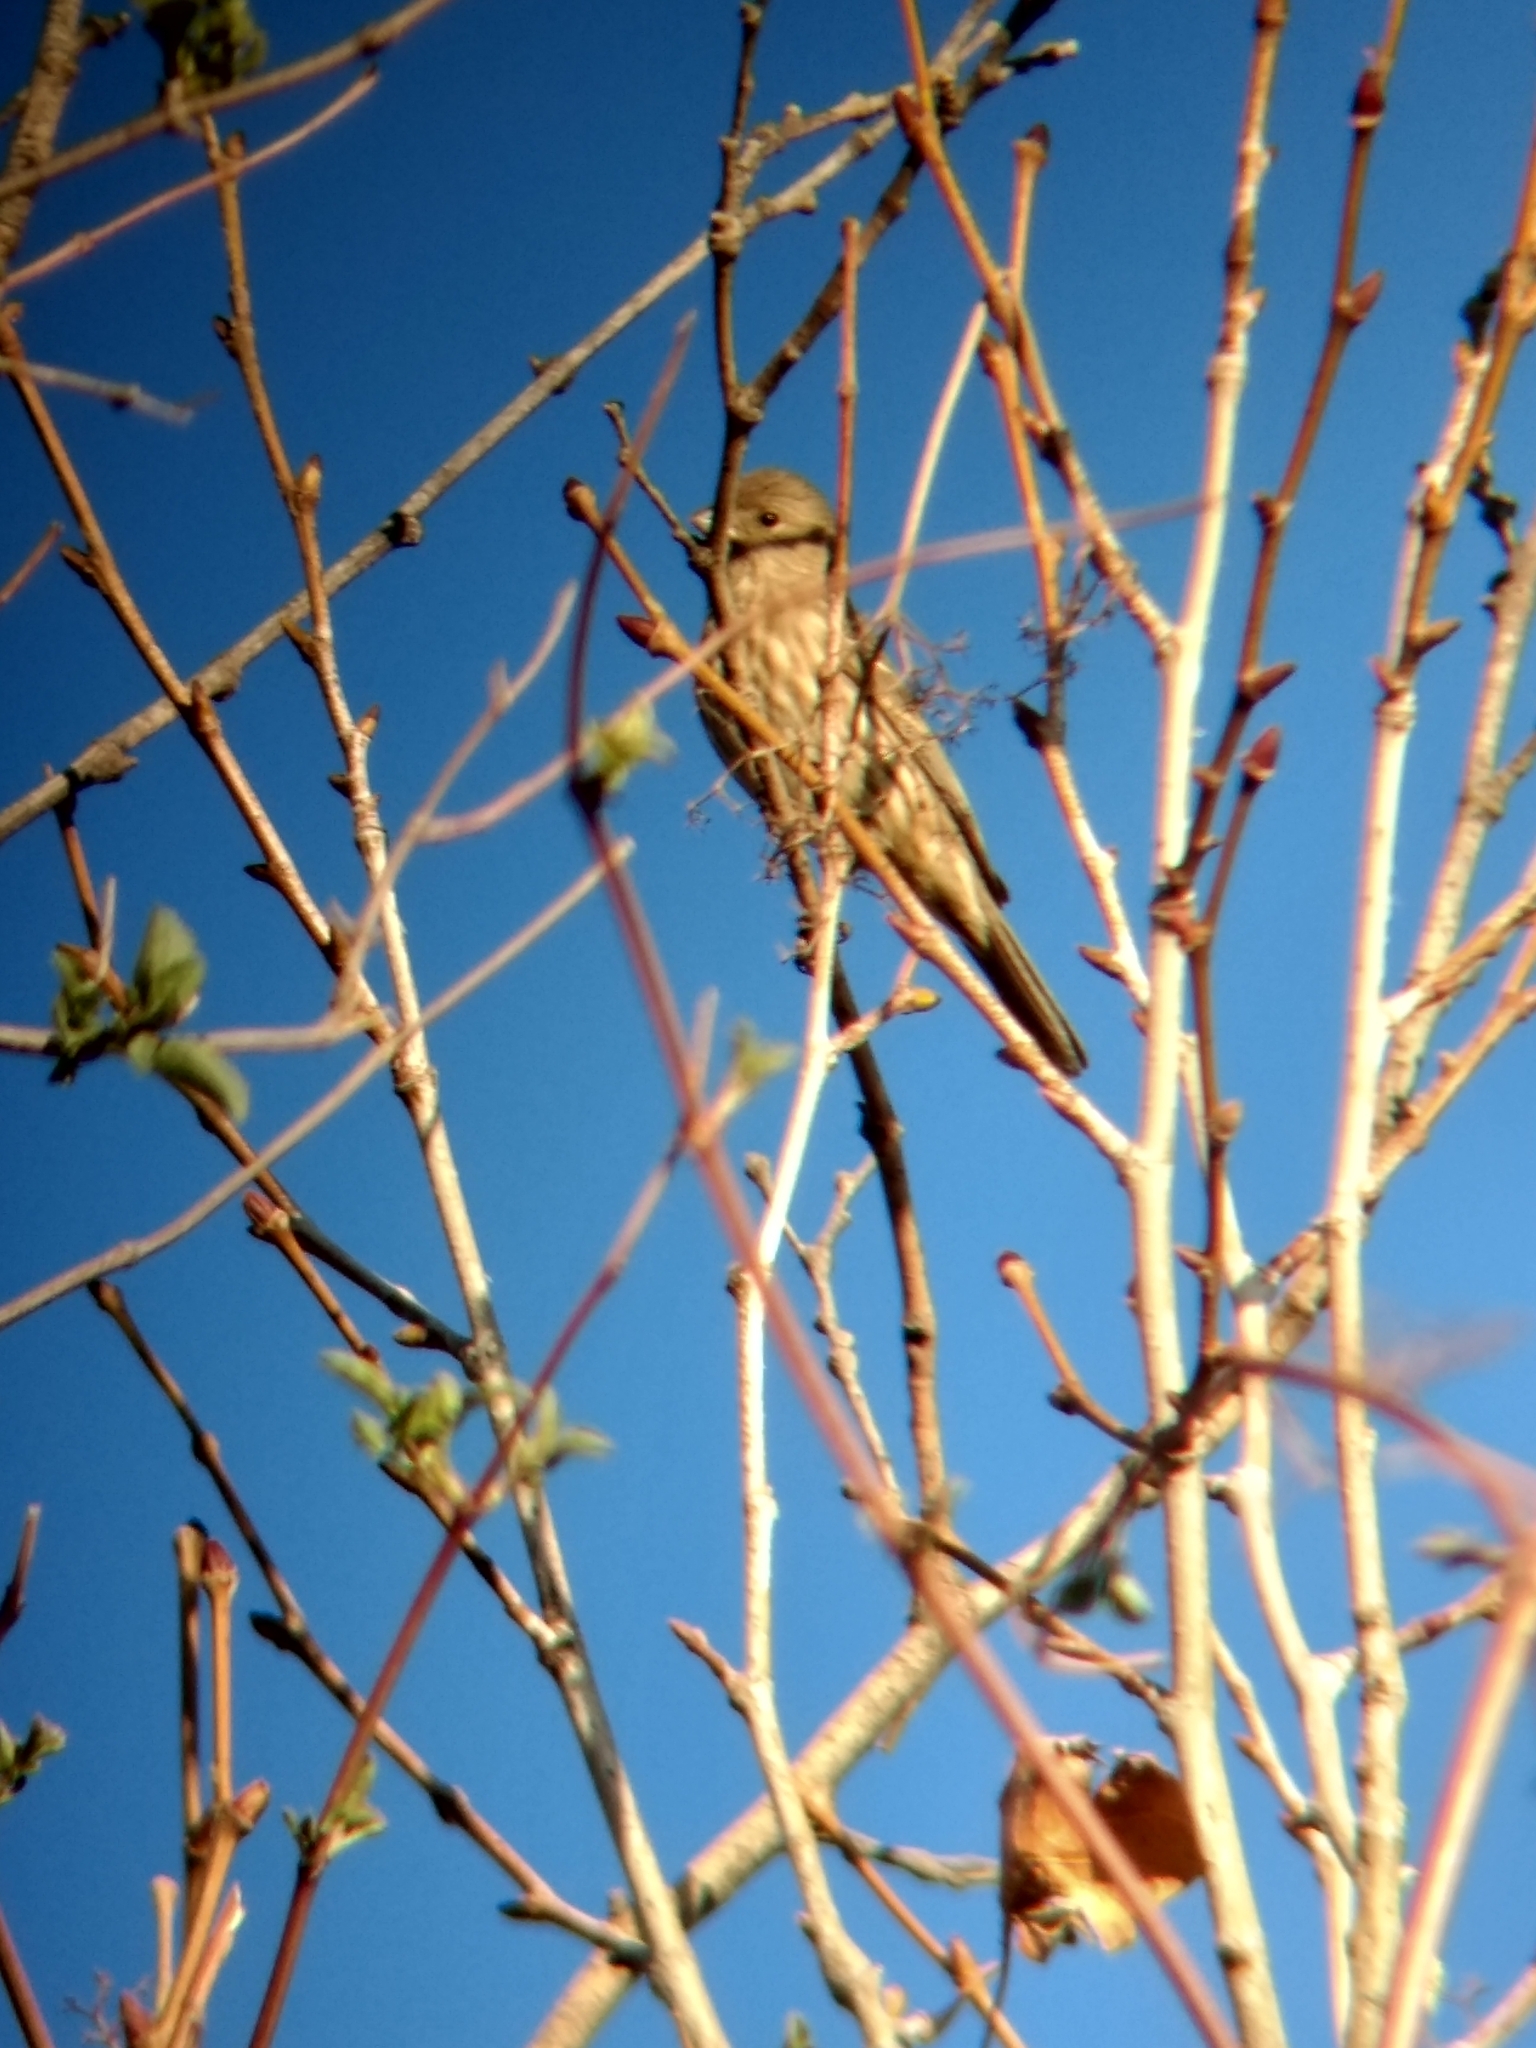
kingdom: Animalia
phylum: Chordata
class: Aves
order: Passeriformes
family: Fringillidae
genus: Haemorhous
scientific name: Haemorhous mexicanus
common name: House finch
